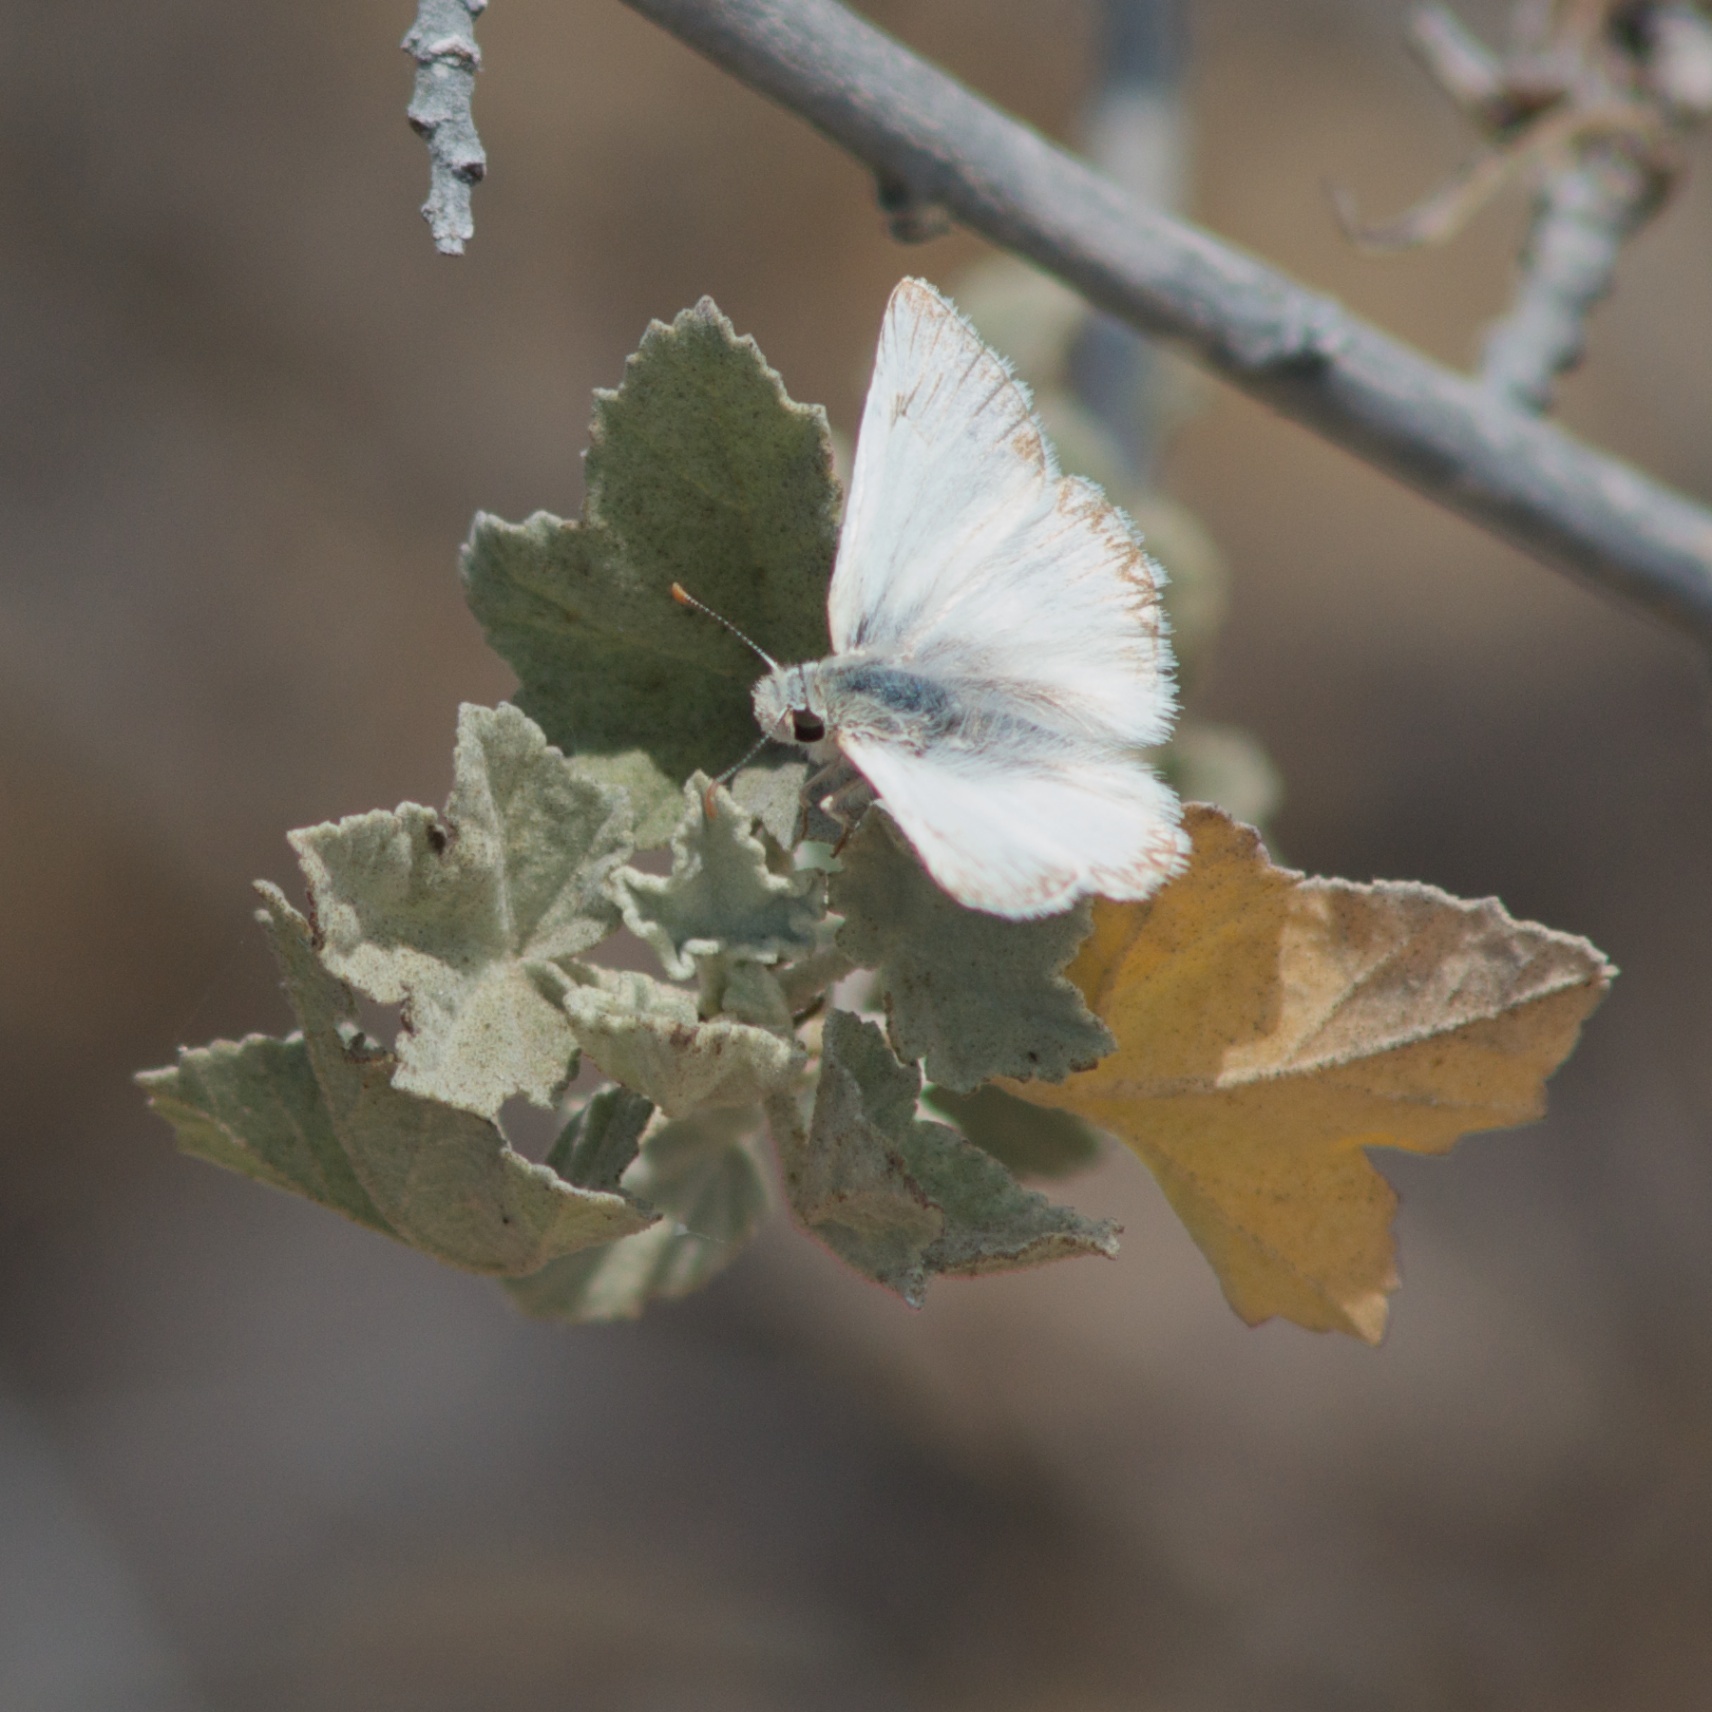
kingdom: Animalia
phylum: Arthropoda
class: Insecta
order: Lepidoptera
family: Hesperiidae
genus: Heliopetes
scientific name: Heliopetes ericetorum
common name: Northern white-skipper
